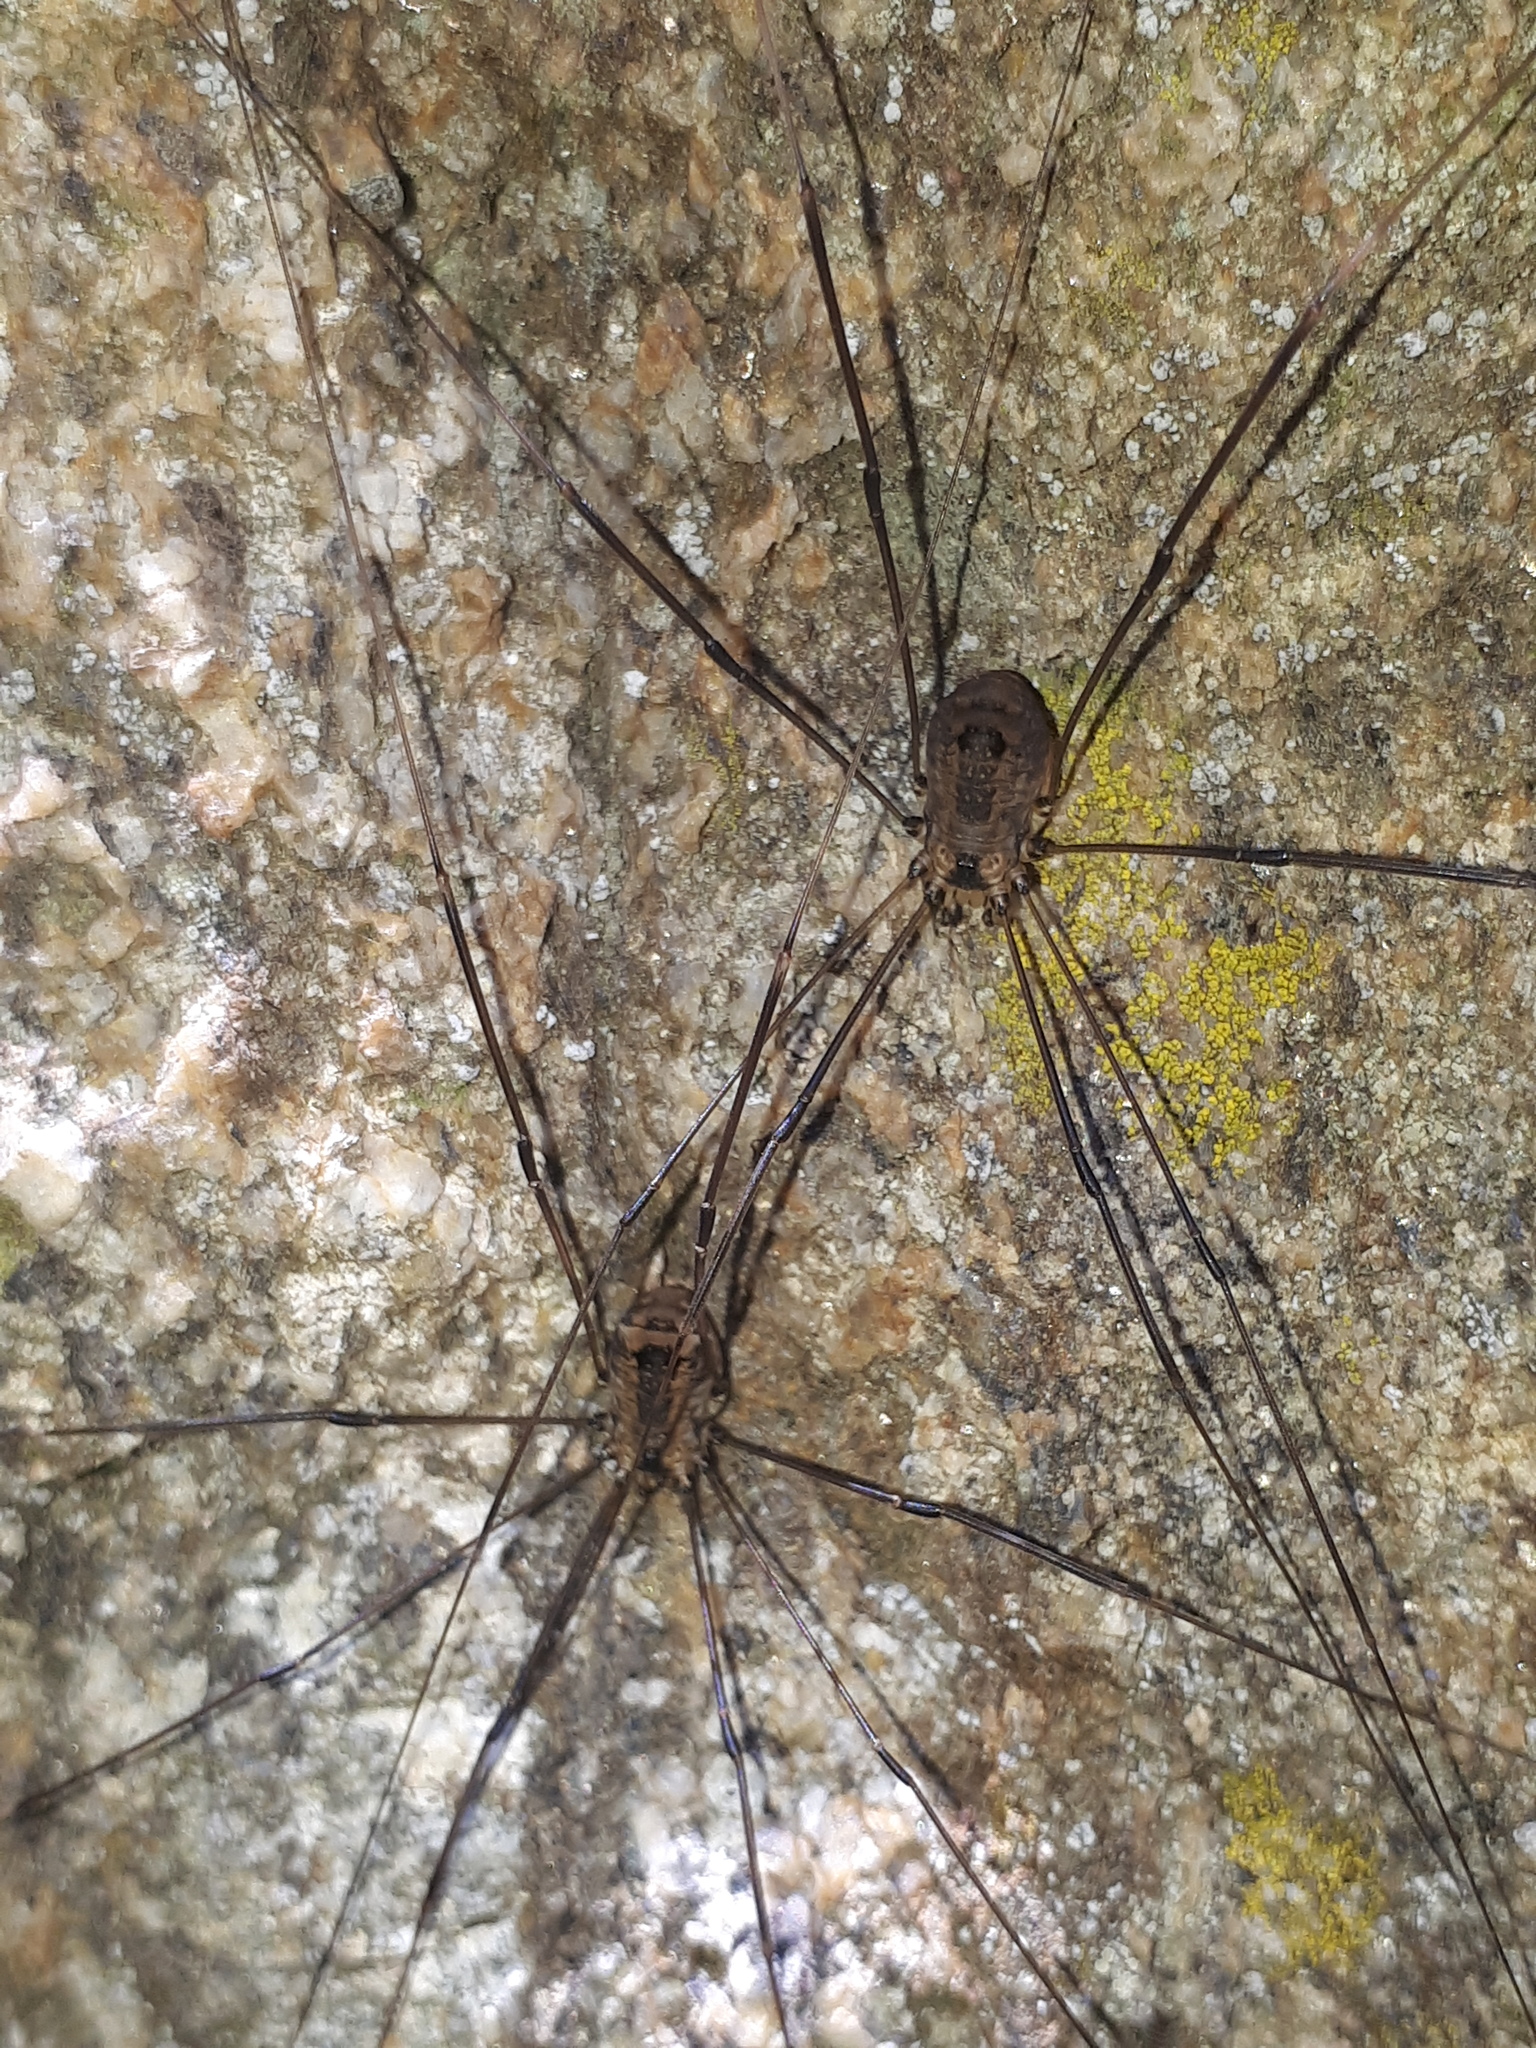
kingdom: Animalia
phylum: Arthropoda
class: Arachnida
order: Opiliones
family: Sclerosomatidae
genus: Leiobunum
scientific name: Leiobunum rotundum
